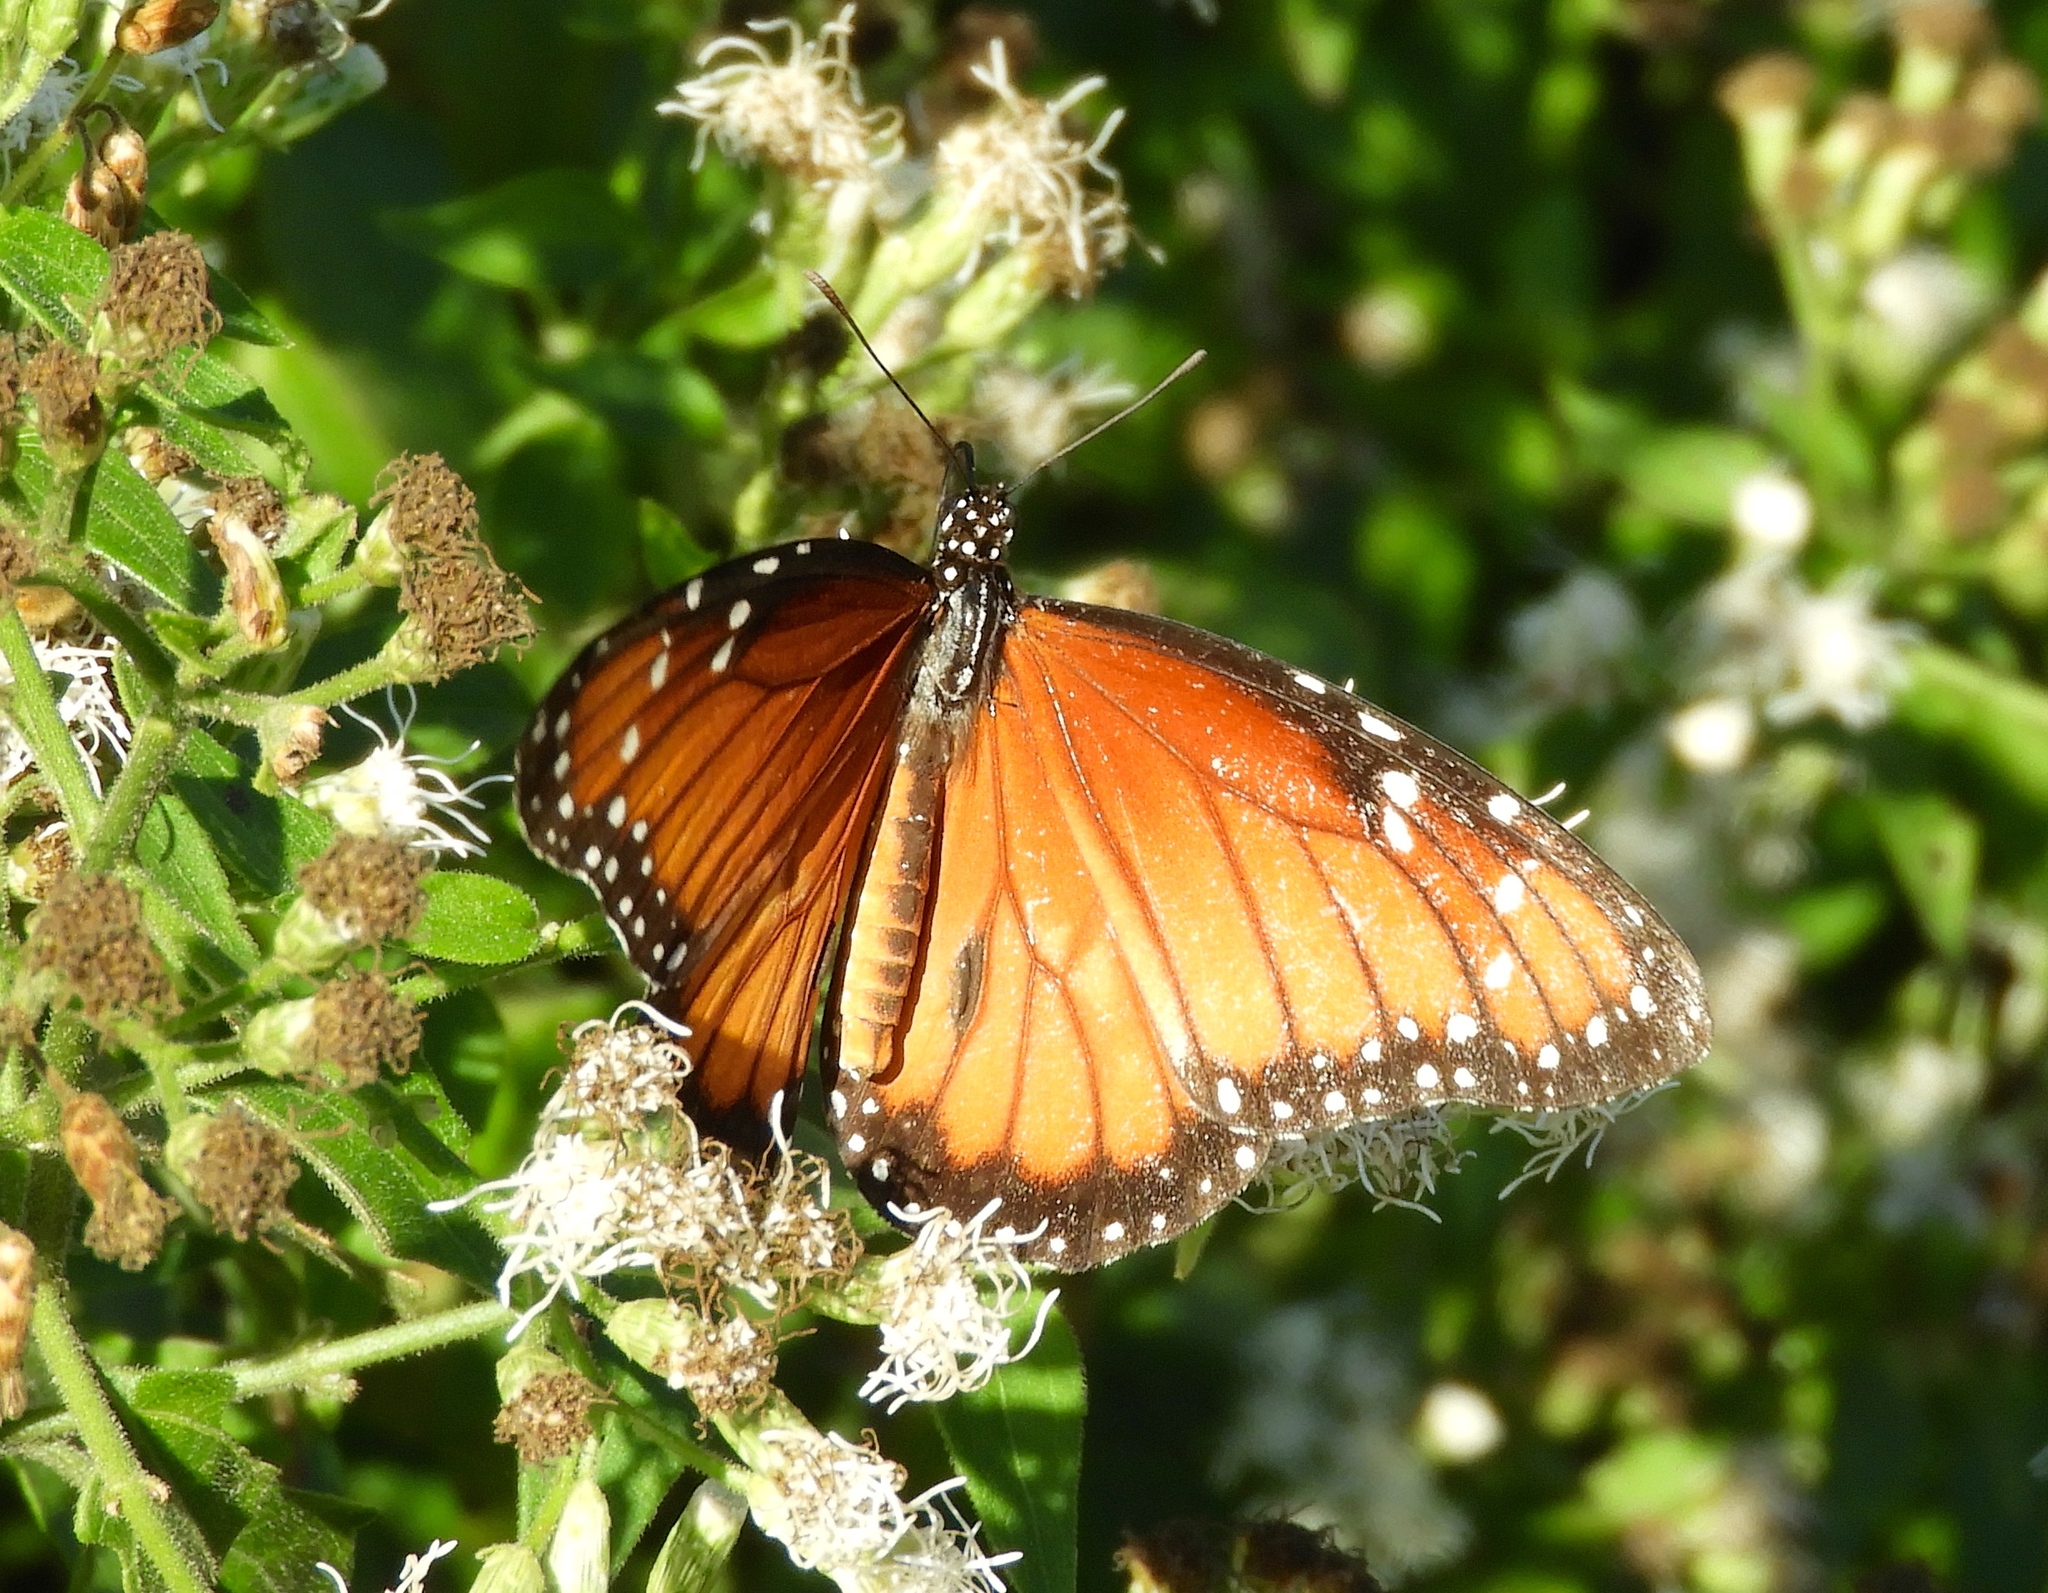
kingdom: Animalia
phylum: Arthropoda
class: Insecta
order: Lepidoptera
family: Nymphalidae
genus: Danaus
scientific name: Danaus eresimus
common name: Soldier
